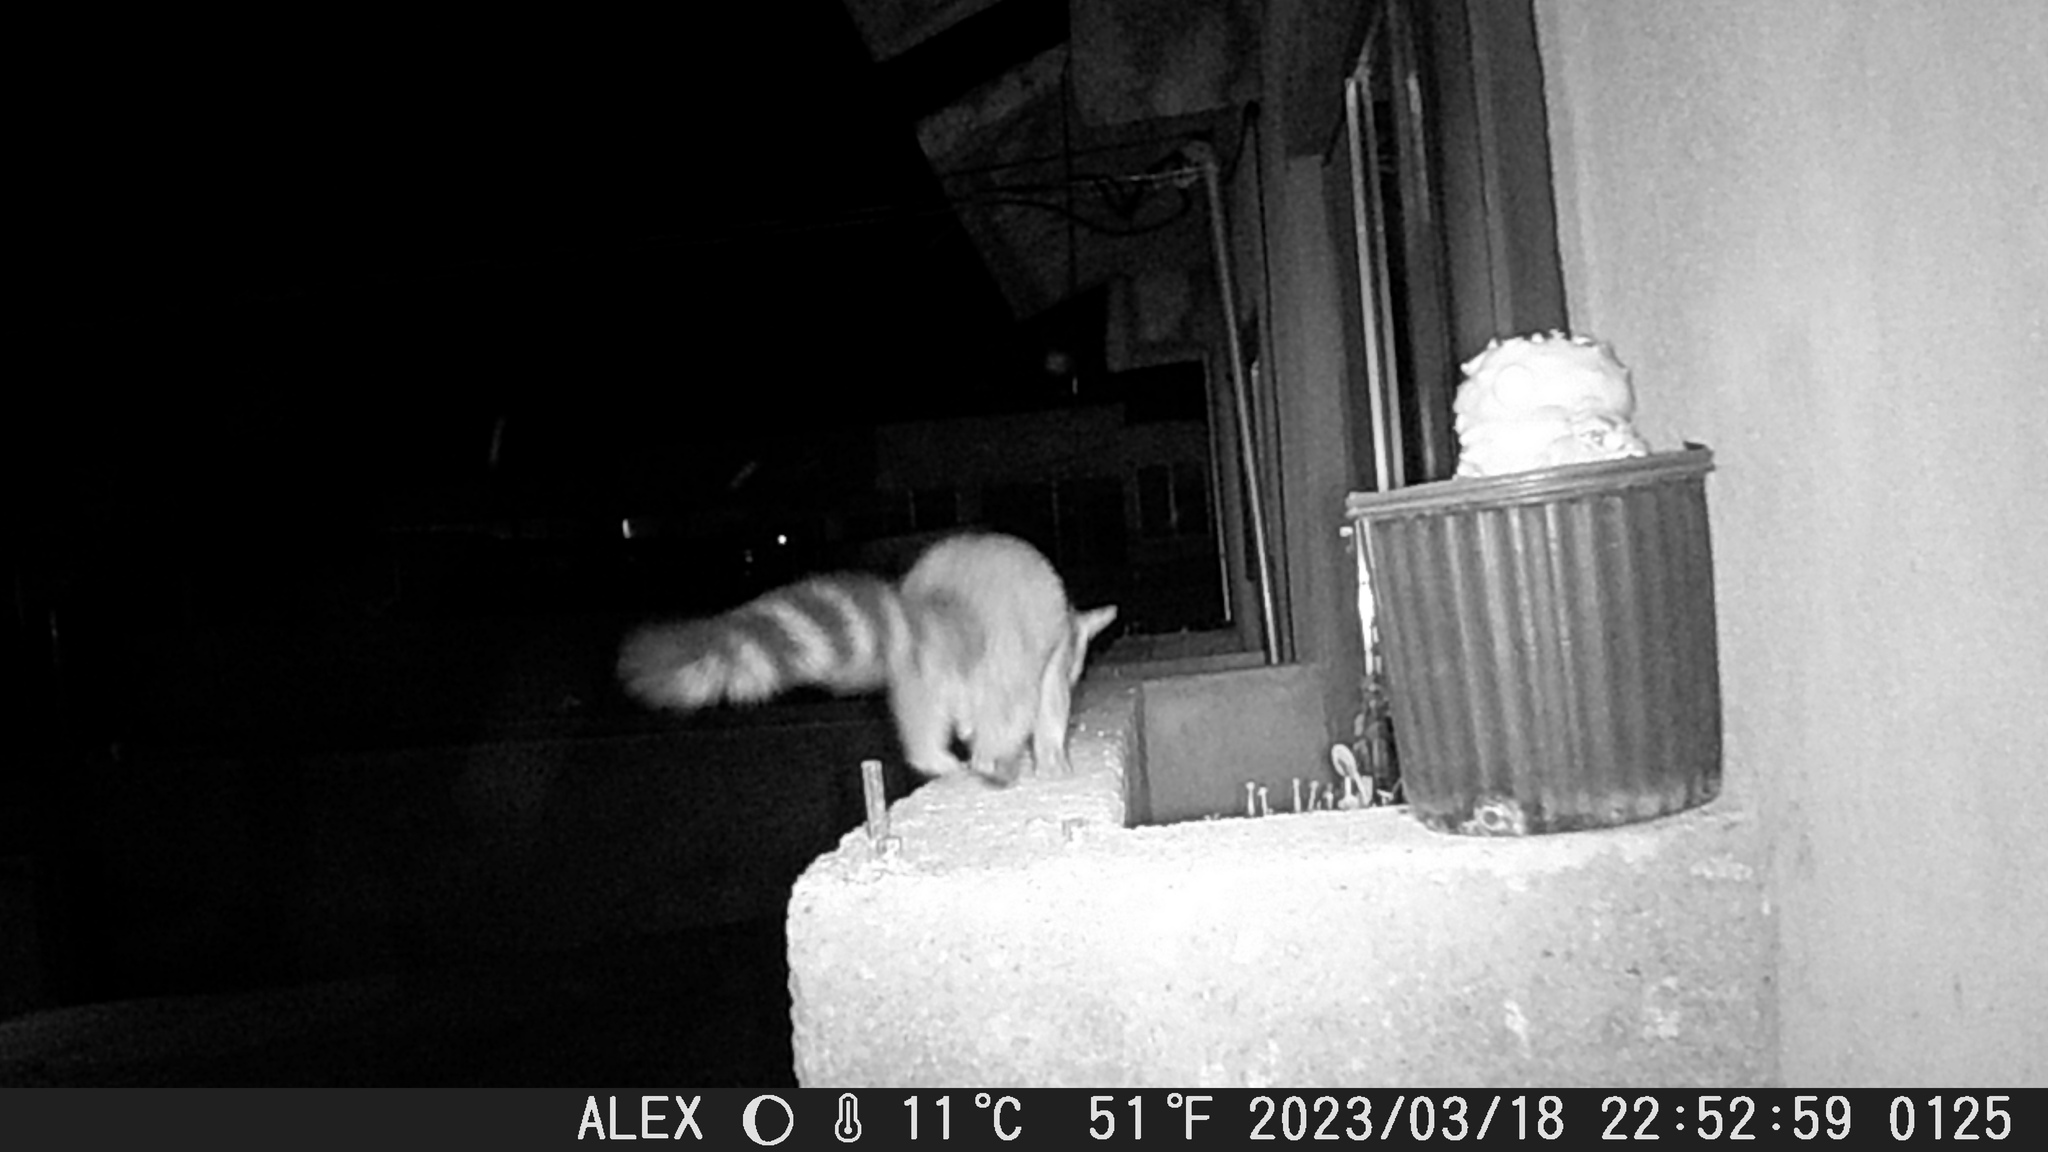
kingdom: Animalia
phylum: Chordata
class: Mammalia
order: Carnivora
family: Procyonidae
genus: Bassariscus
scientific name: Bassariscus astutus
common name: Ringtail
